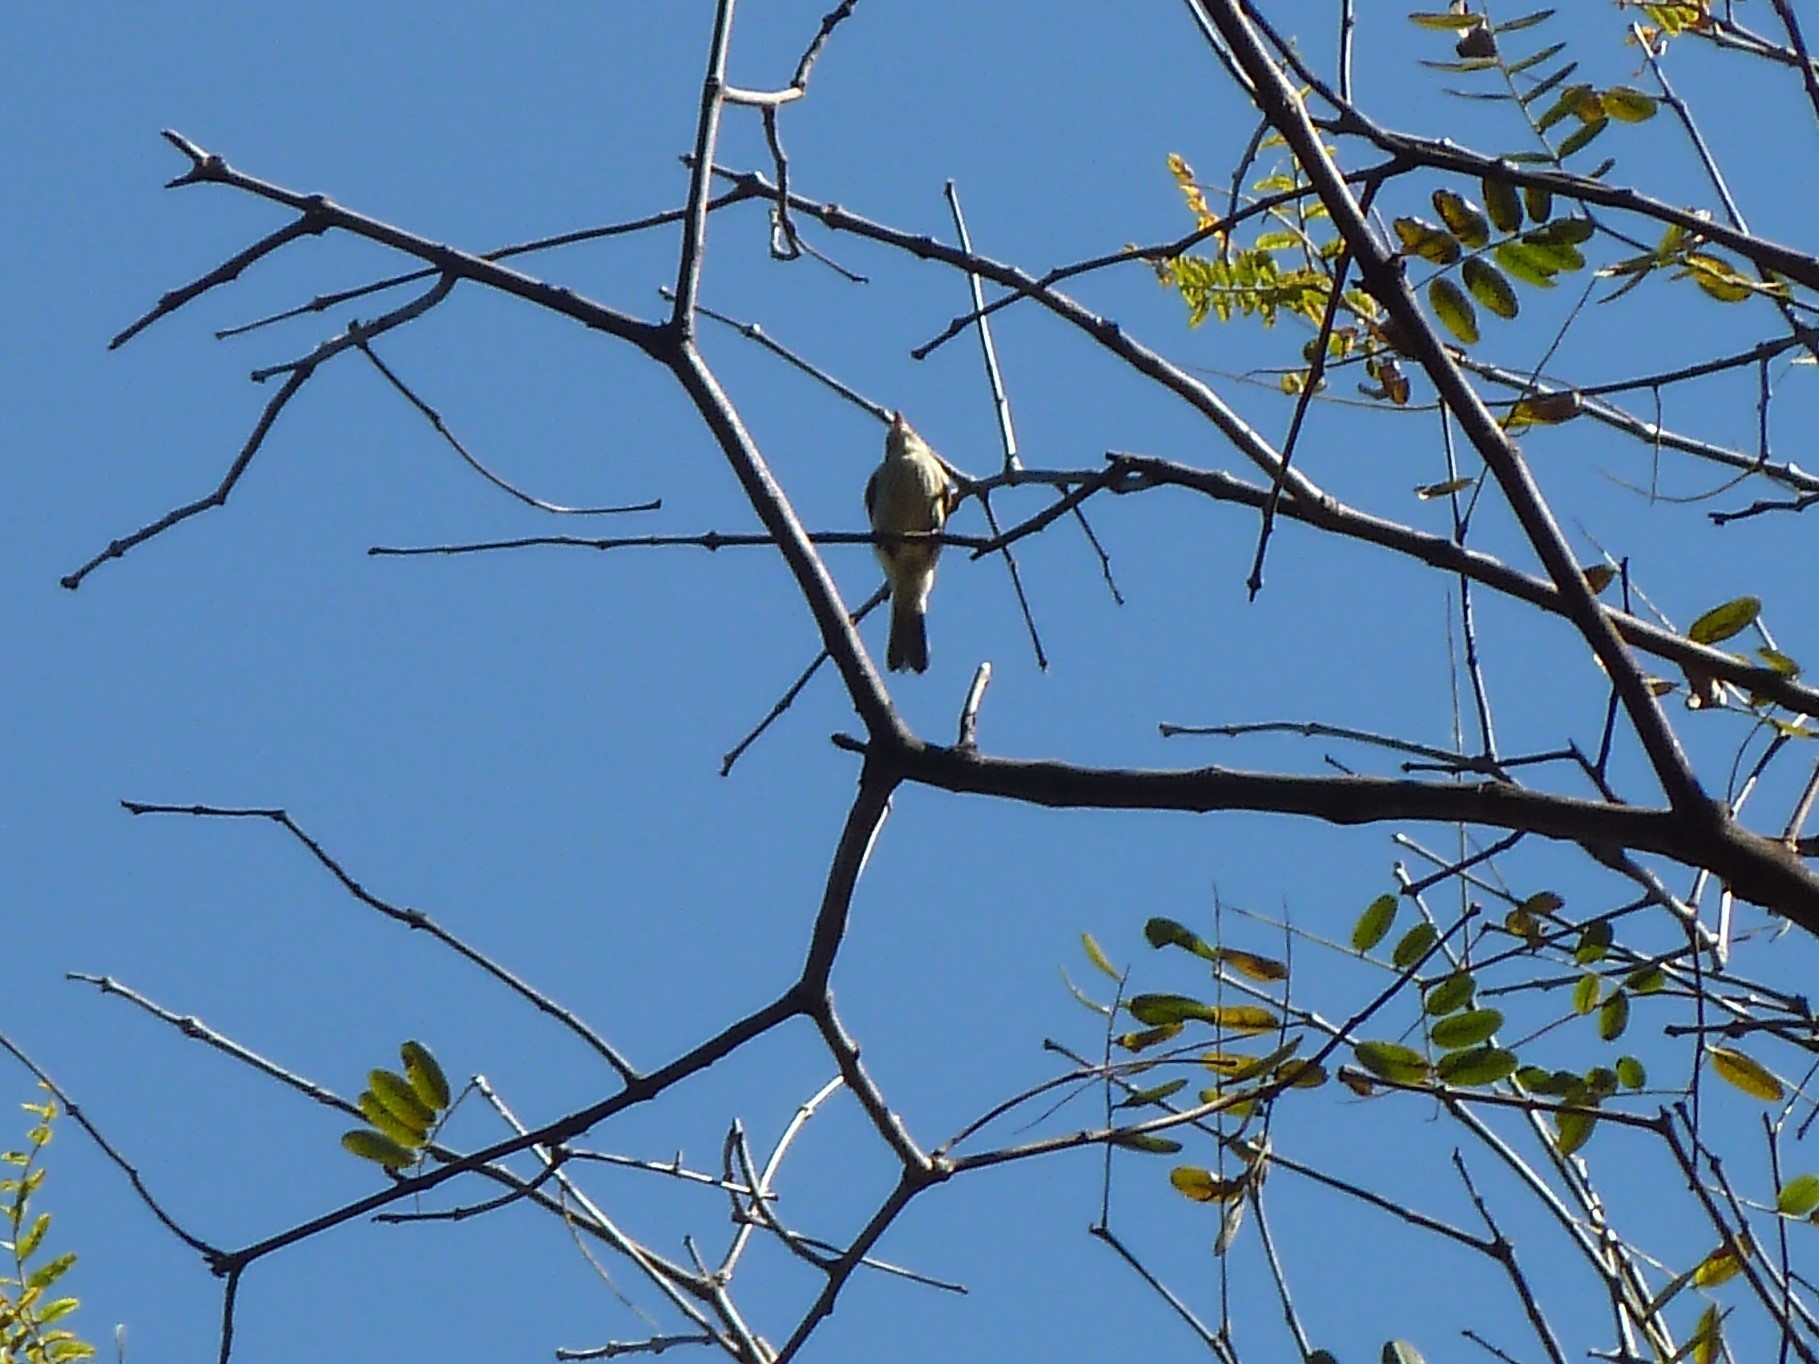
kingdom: Animalia
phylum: Chordata
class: Aves
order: Passeriformes
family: Tyrannidae
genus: Myiophobus
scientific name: Myiophobus fasciatus
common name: Bran-colored flycatcher
